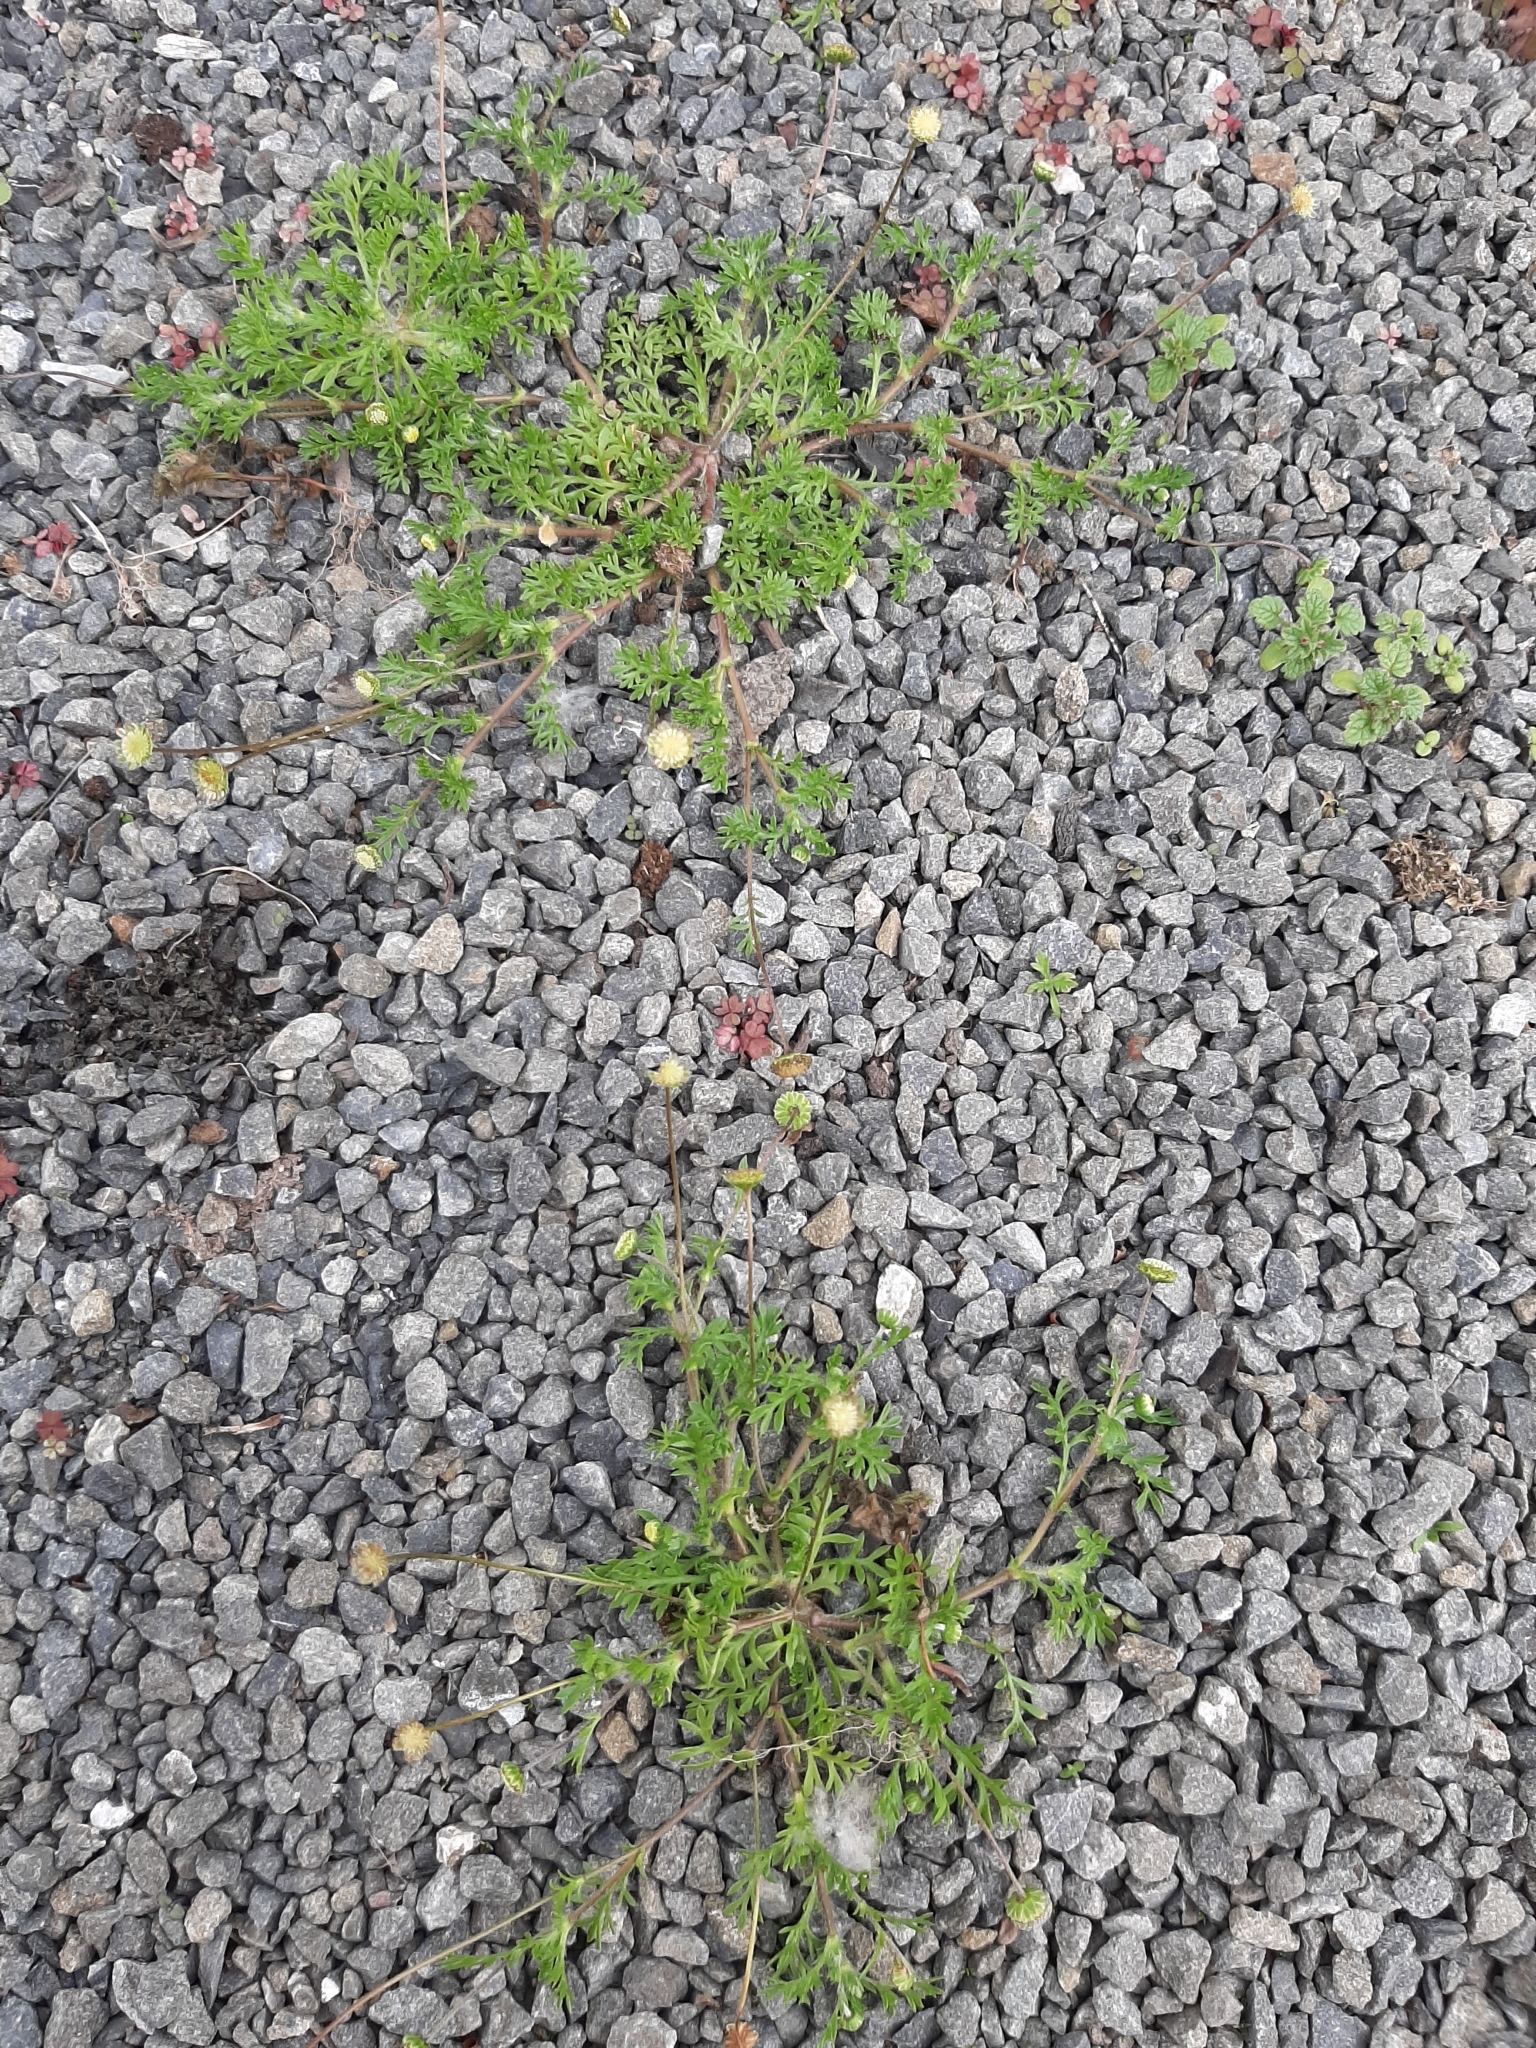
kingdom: Plantae
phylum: Tracheophyta
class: Magnoliopsida
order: Asterales
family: Asteraceae
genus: Cotula
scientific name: Cotula australis
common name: Australian waterbuttons
